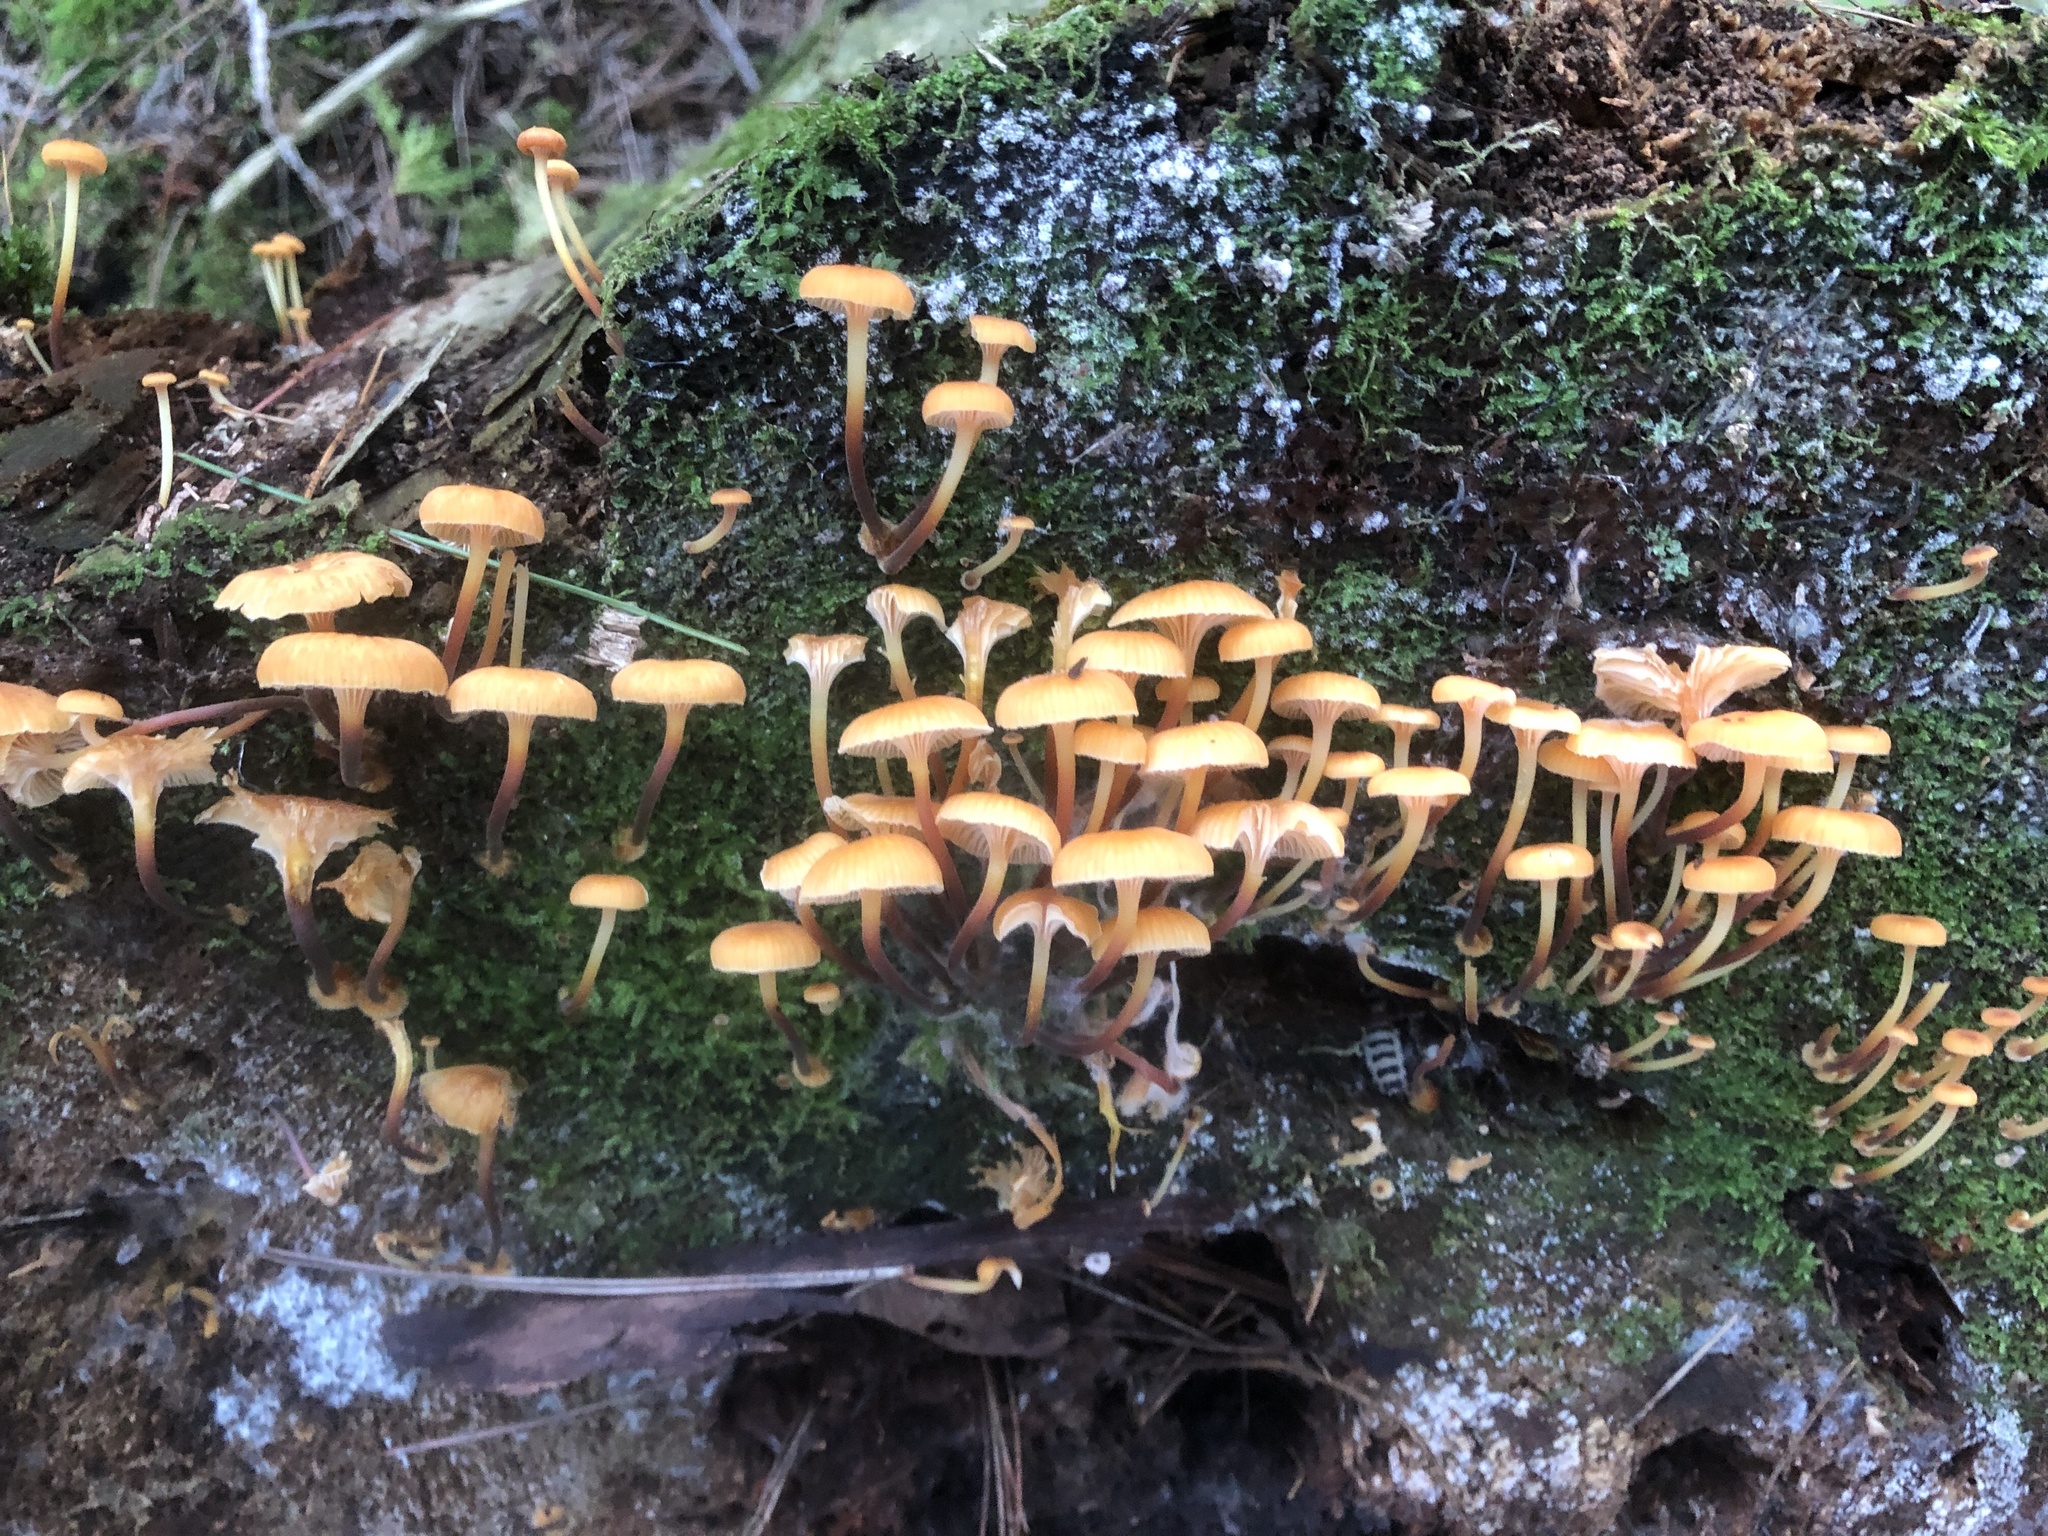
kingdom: Fungi
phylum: Basidiomycota
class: Agaricomycetes
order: Agaricales
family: Mycenaceae
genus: Xeromphalina
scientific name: Xeromphalina campanella
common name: Pinewood gingertail
